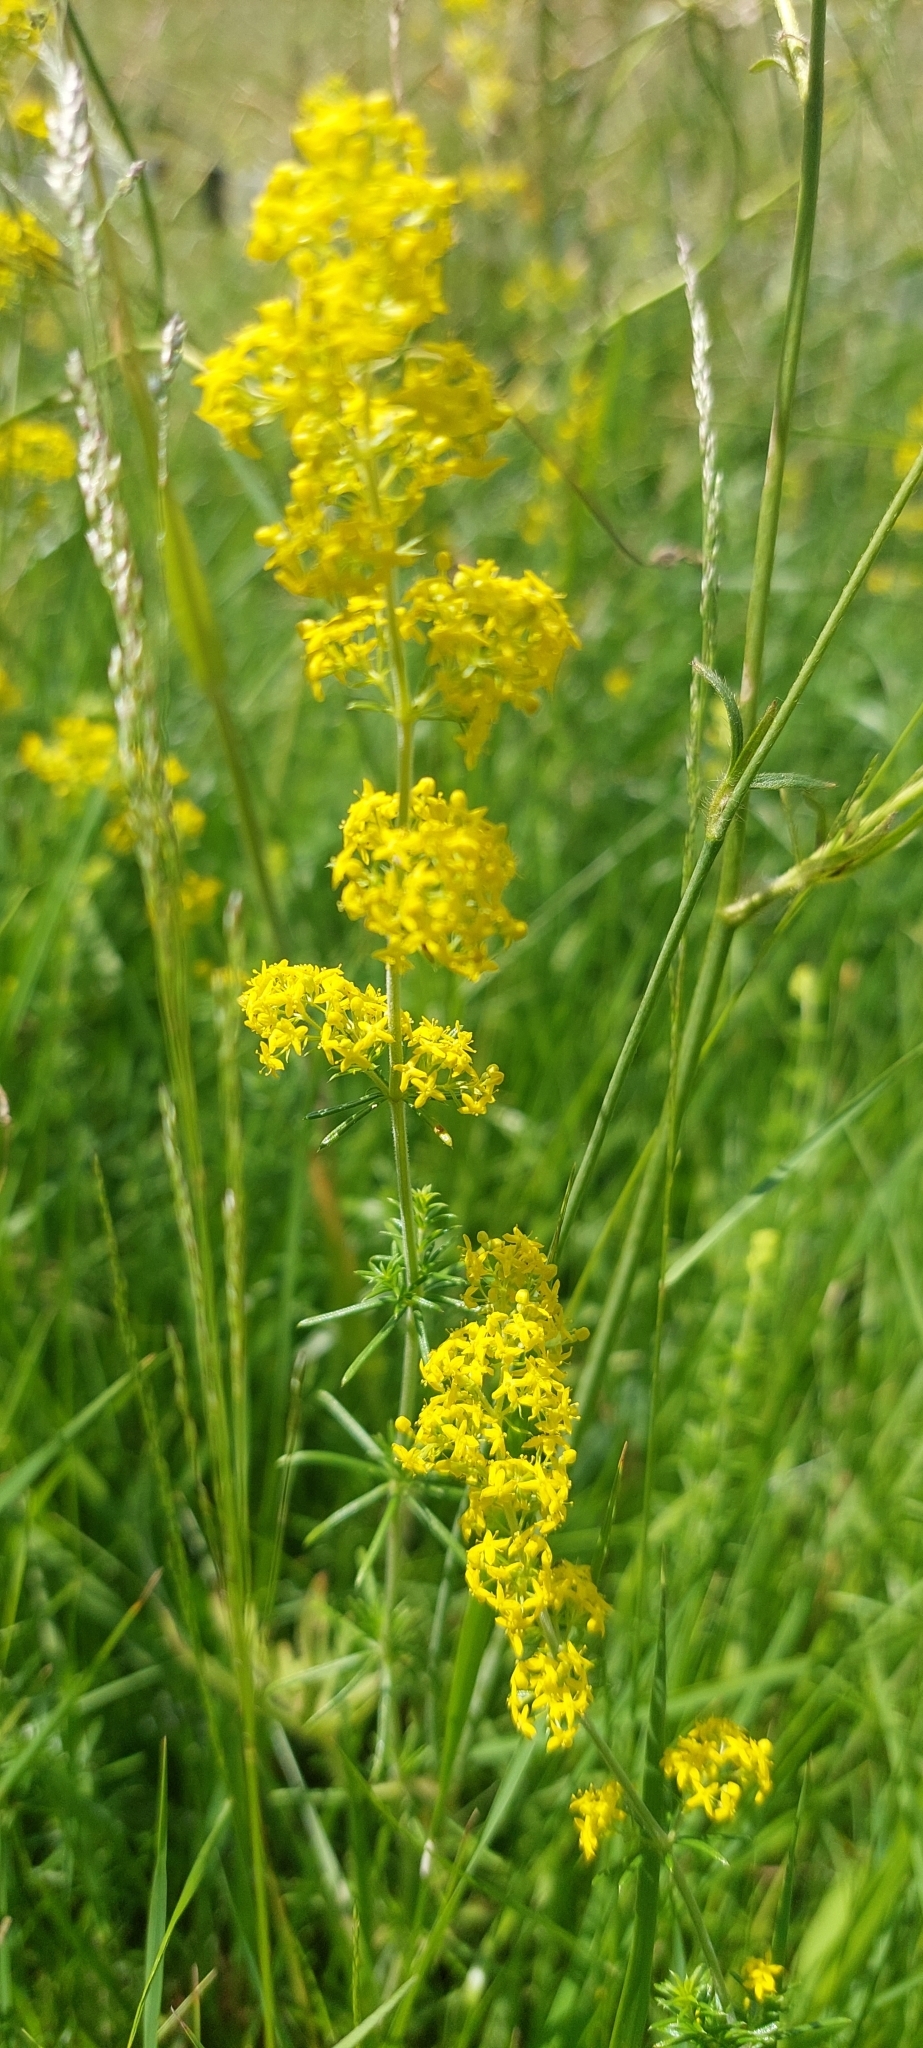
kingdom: Plantae
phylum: Tracheophyta
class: Magnoliopsida
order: Gentianales
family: Rubiaceae
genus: Galium
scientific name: Galium verum
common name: Lady's bedstraw
